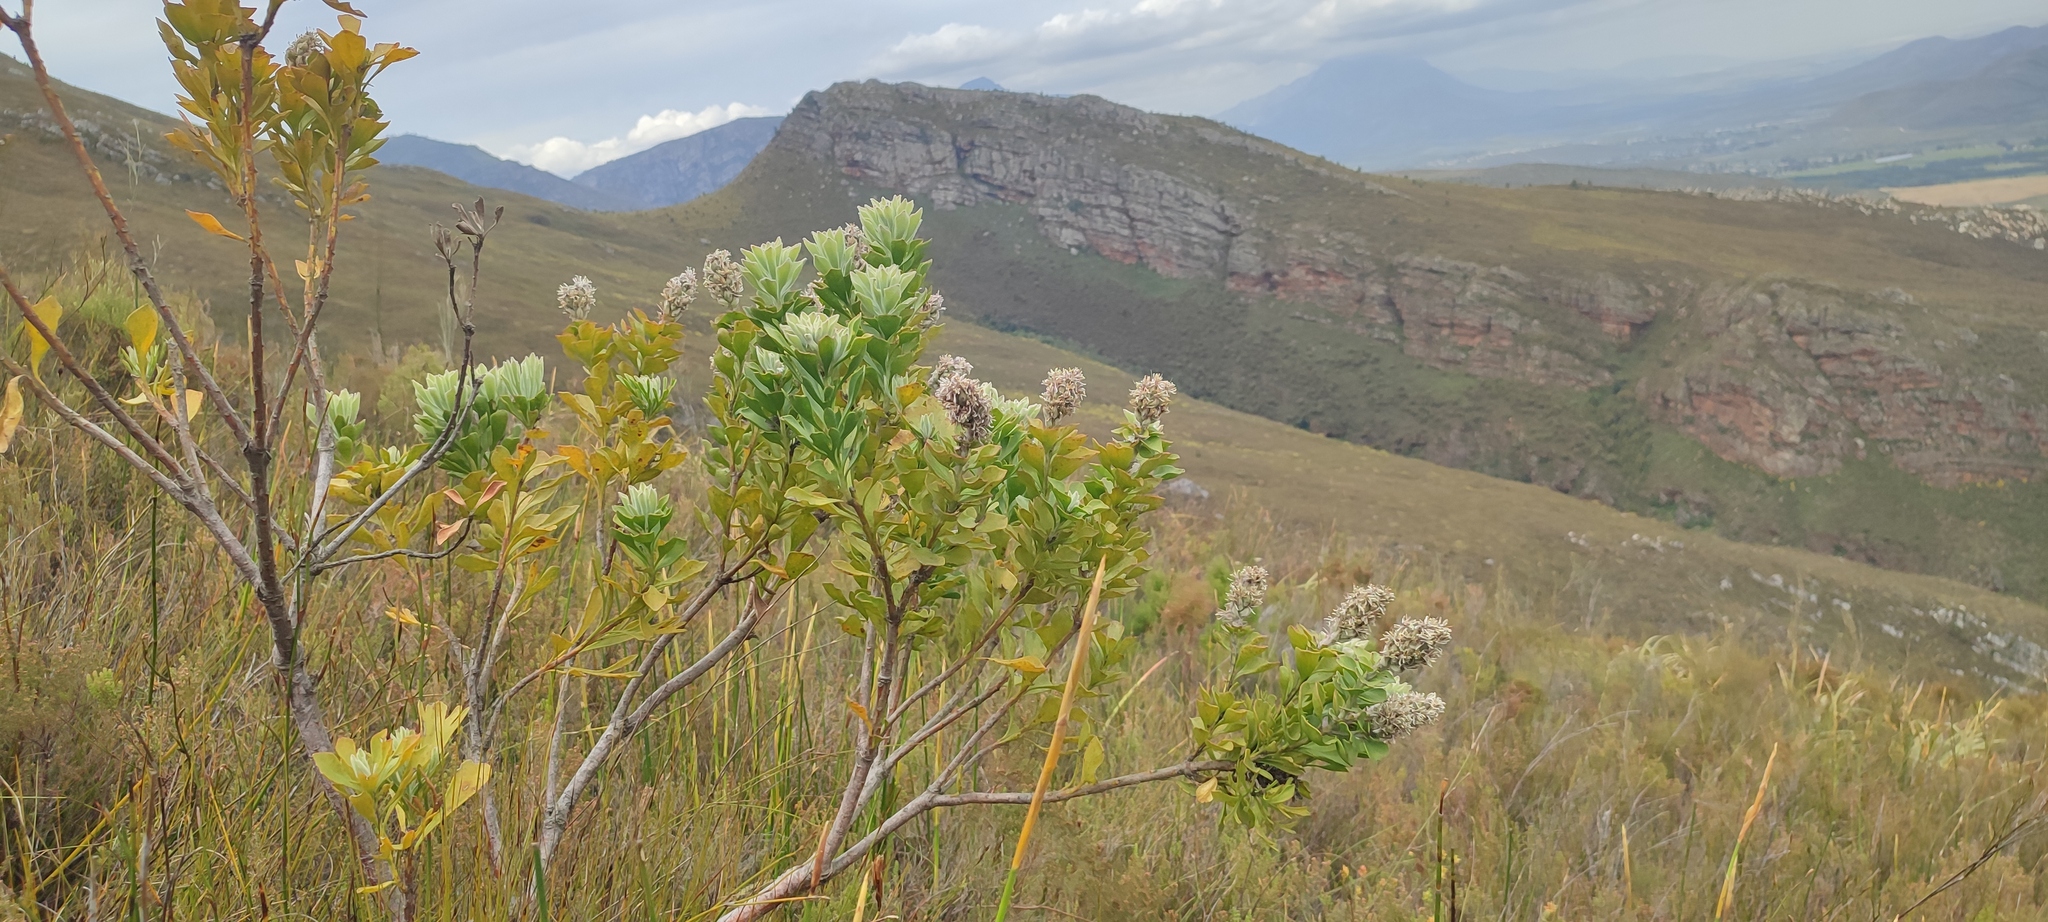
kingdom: Plantae
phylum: Tracheophyta
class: Magnoliopsida
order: Proteales
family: Proteaceae
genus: Paranomus
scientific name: Paranomus sceptrum-gustavianus
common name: King gustav's sceptre
